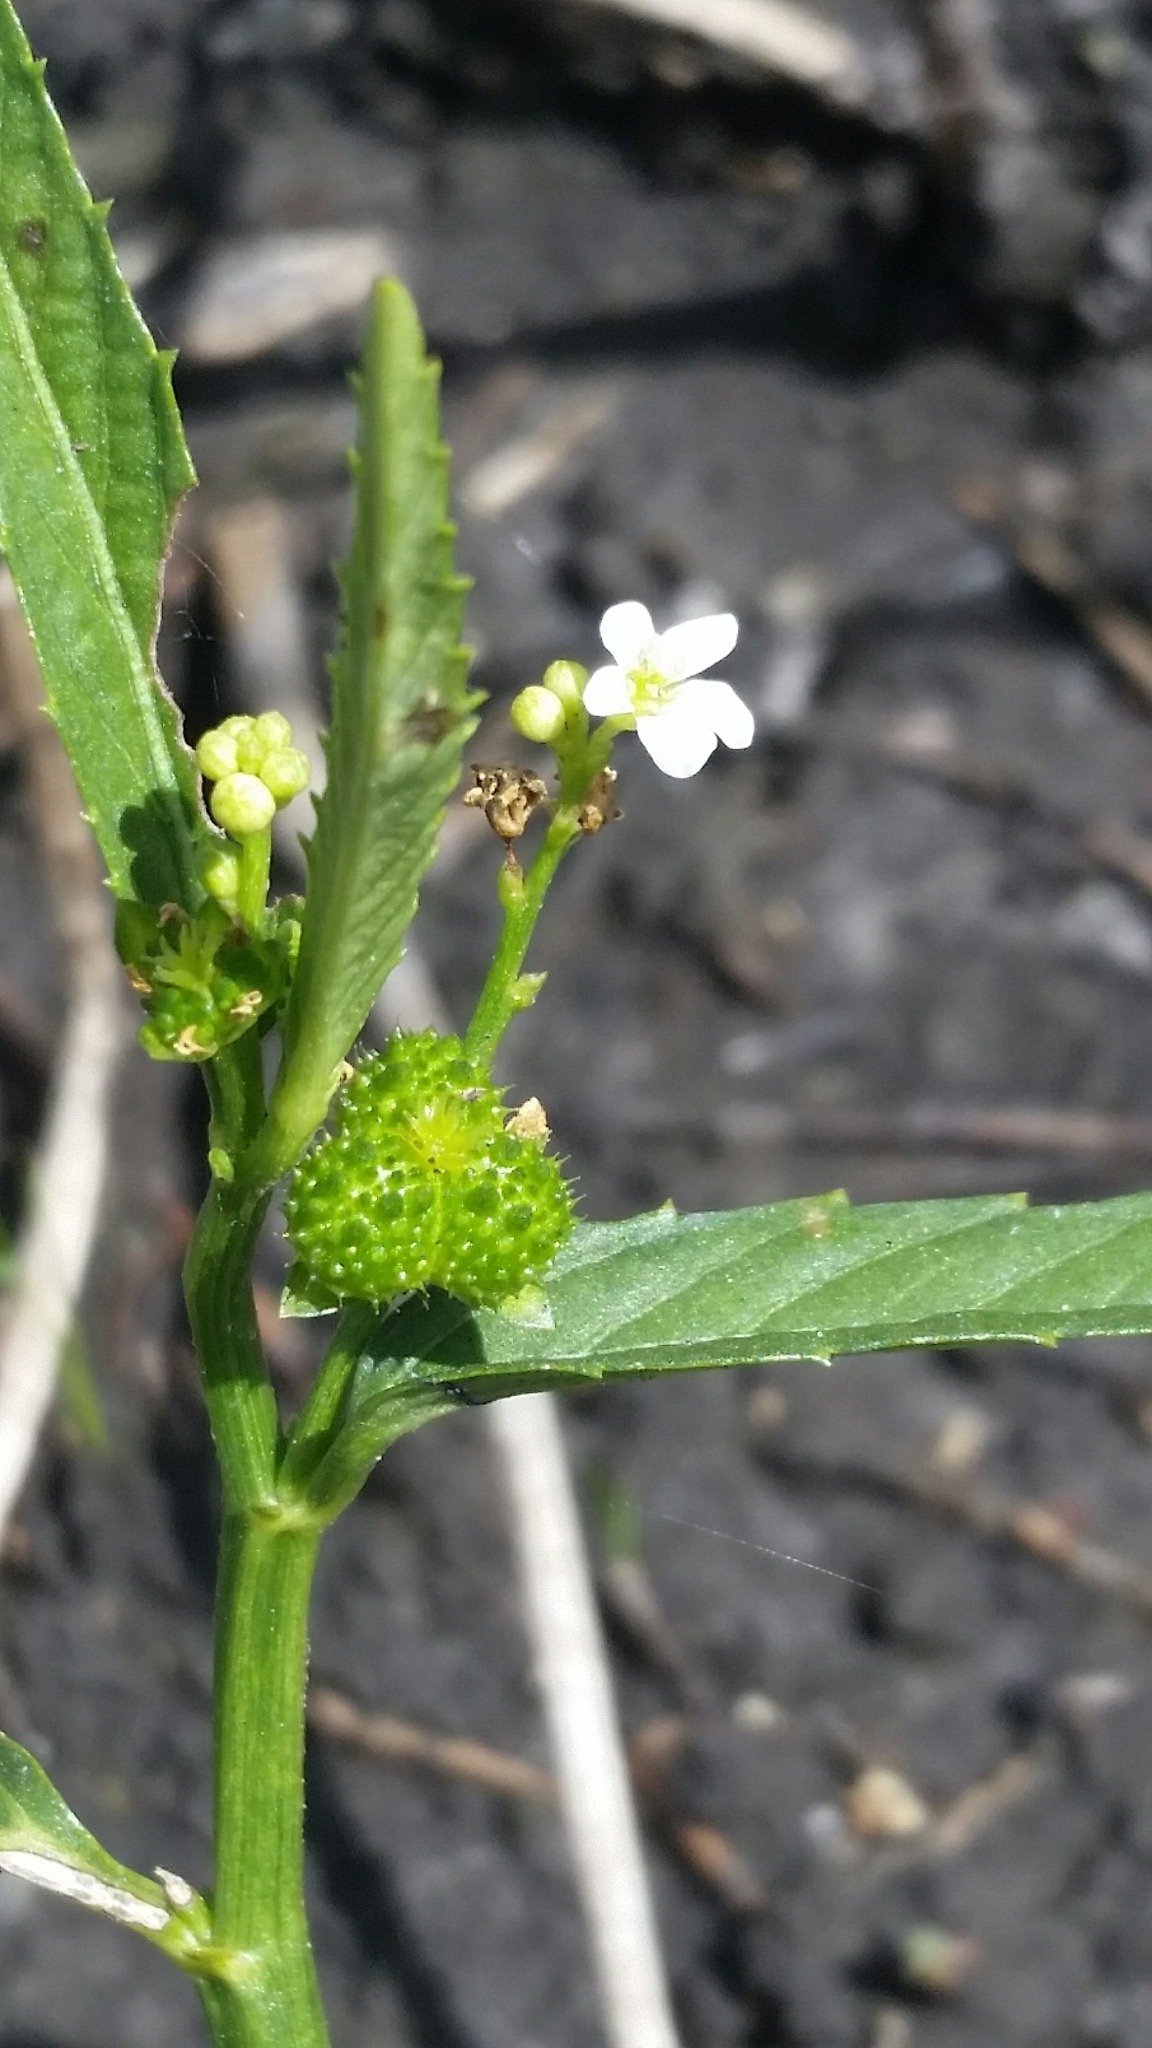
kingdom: Plantae
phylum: Tracheophyta
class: Magnoliopsida
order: Malpighiales
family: Euphorbiaceae
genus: Caperonia
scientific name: Caperonia castaneifolia
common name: Chestnutleaf false croton
